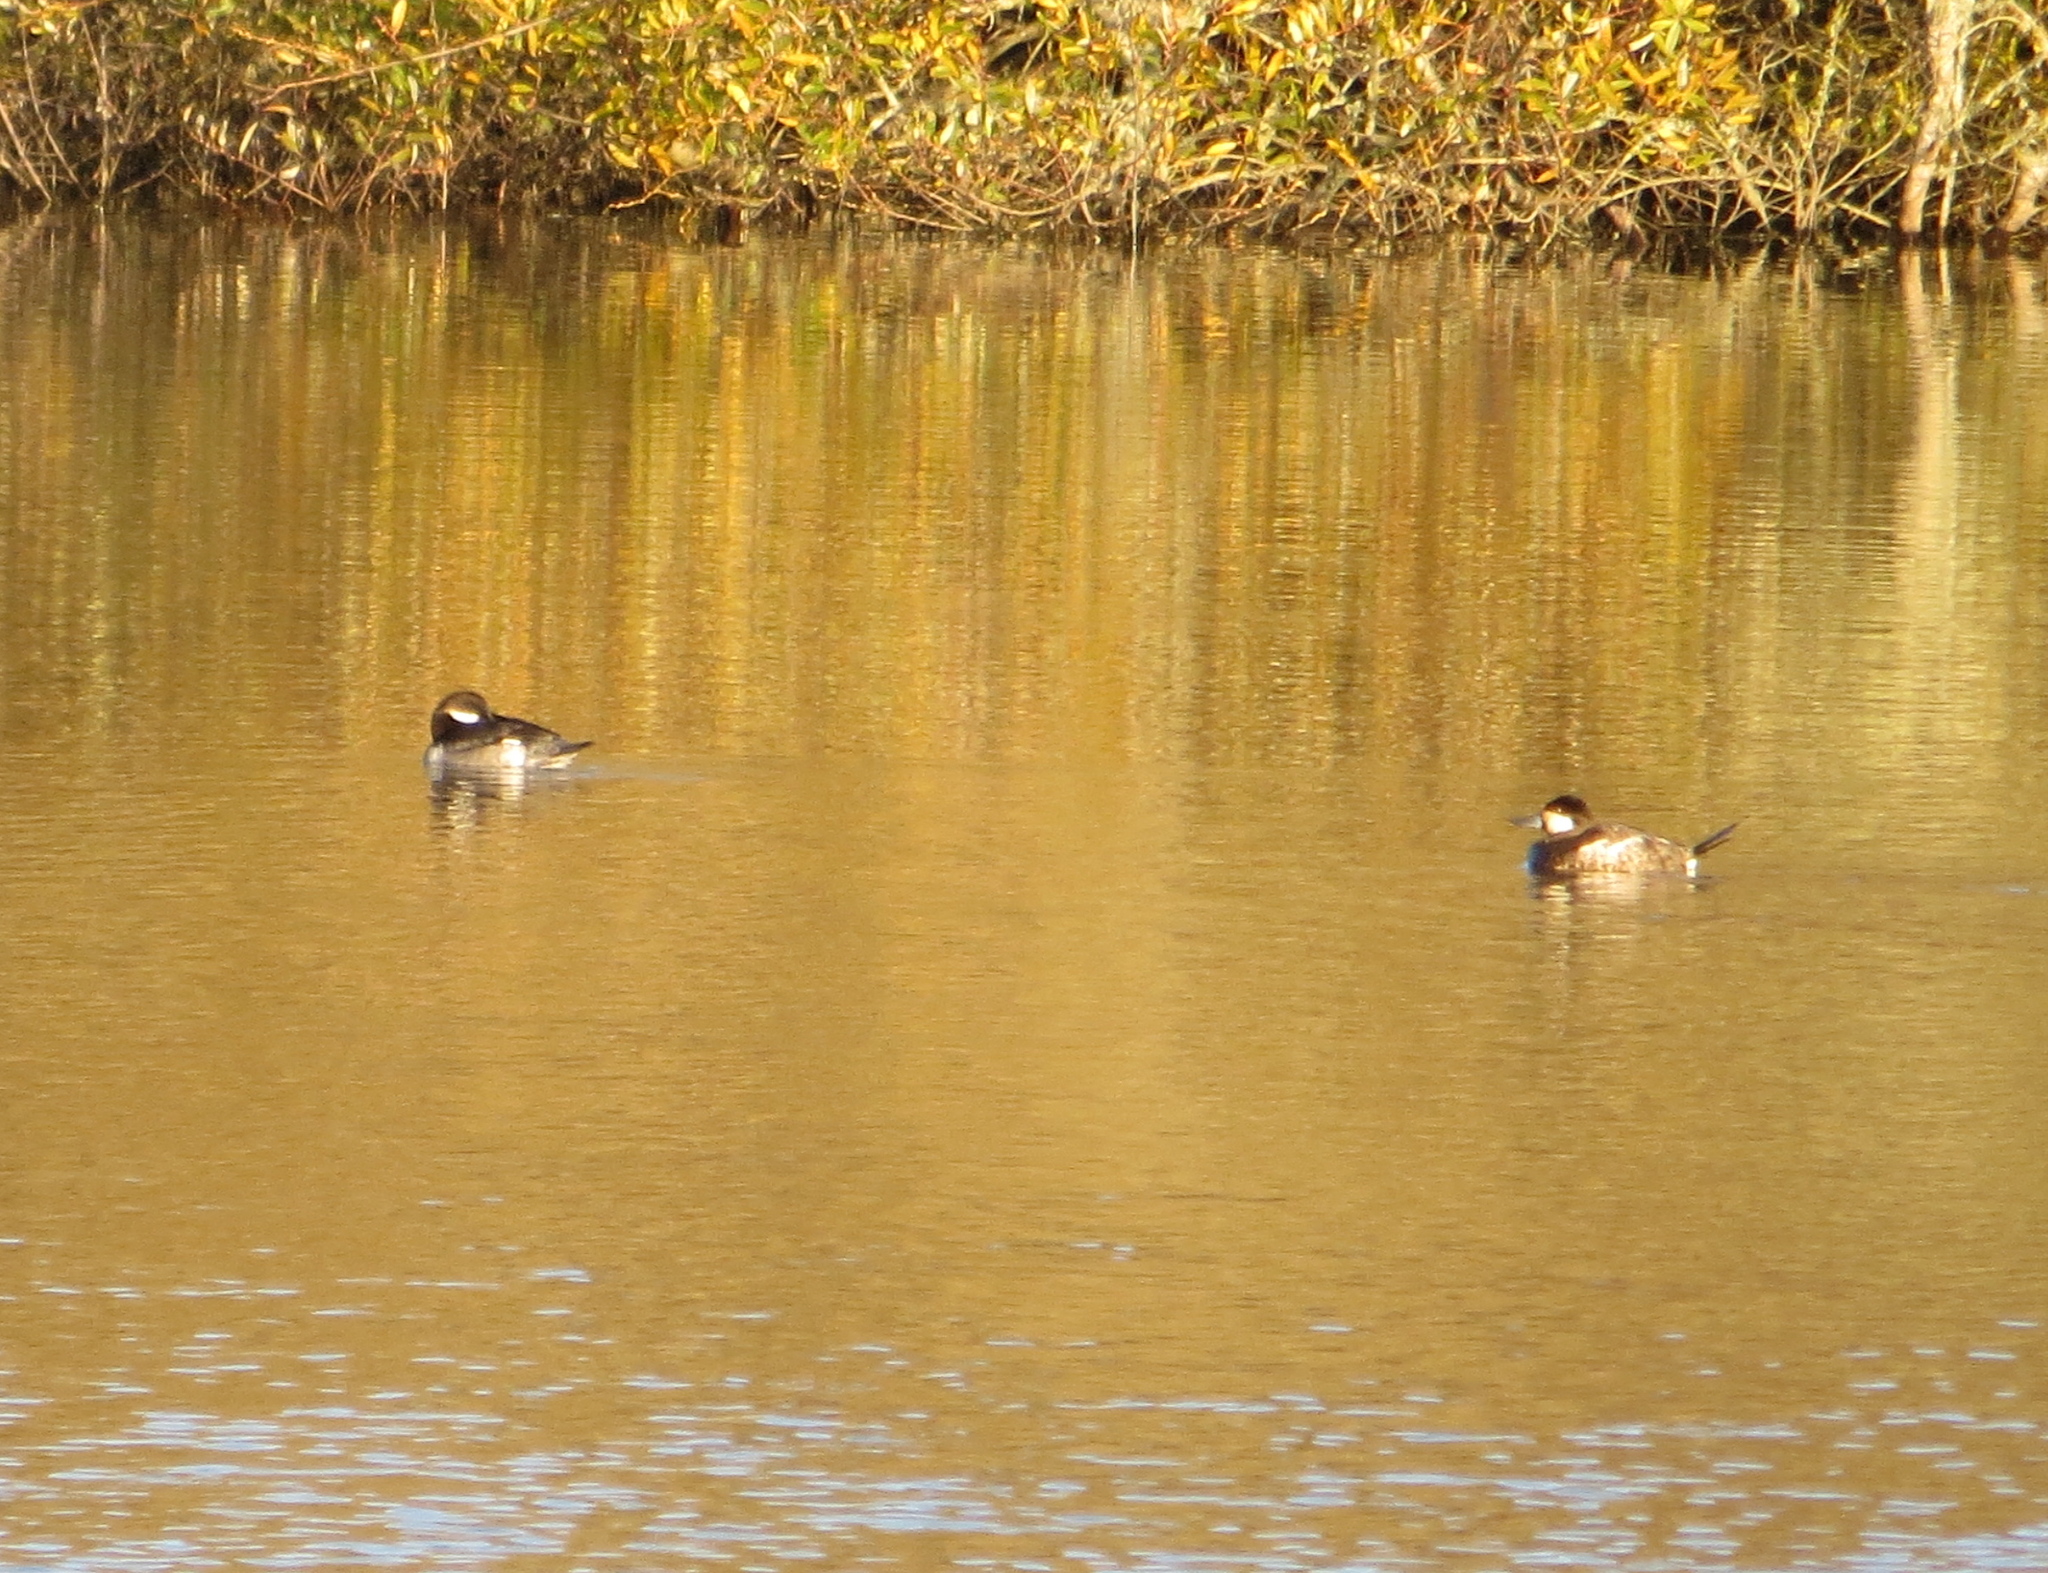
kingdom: Animalia
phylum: Chordata
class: Aves
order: Anseriformes
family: Anatidae
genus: Oxyura
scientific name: Oxyura jamaicensis
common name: Ruddy duck
